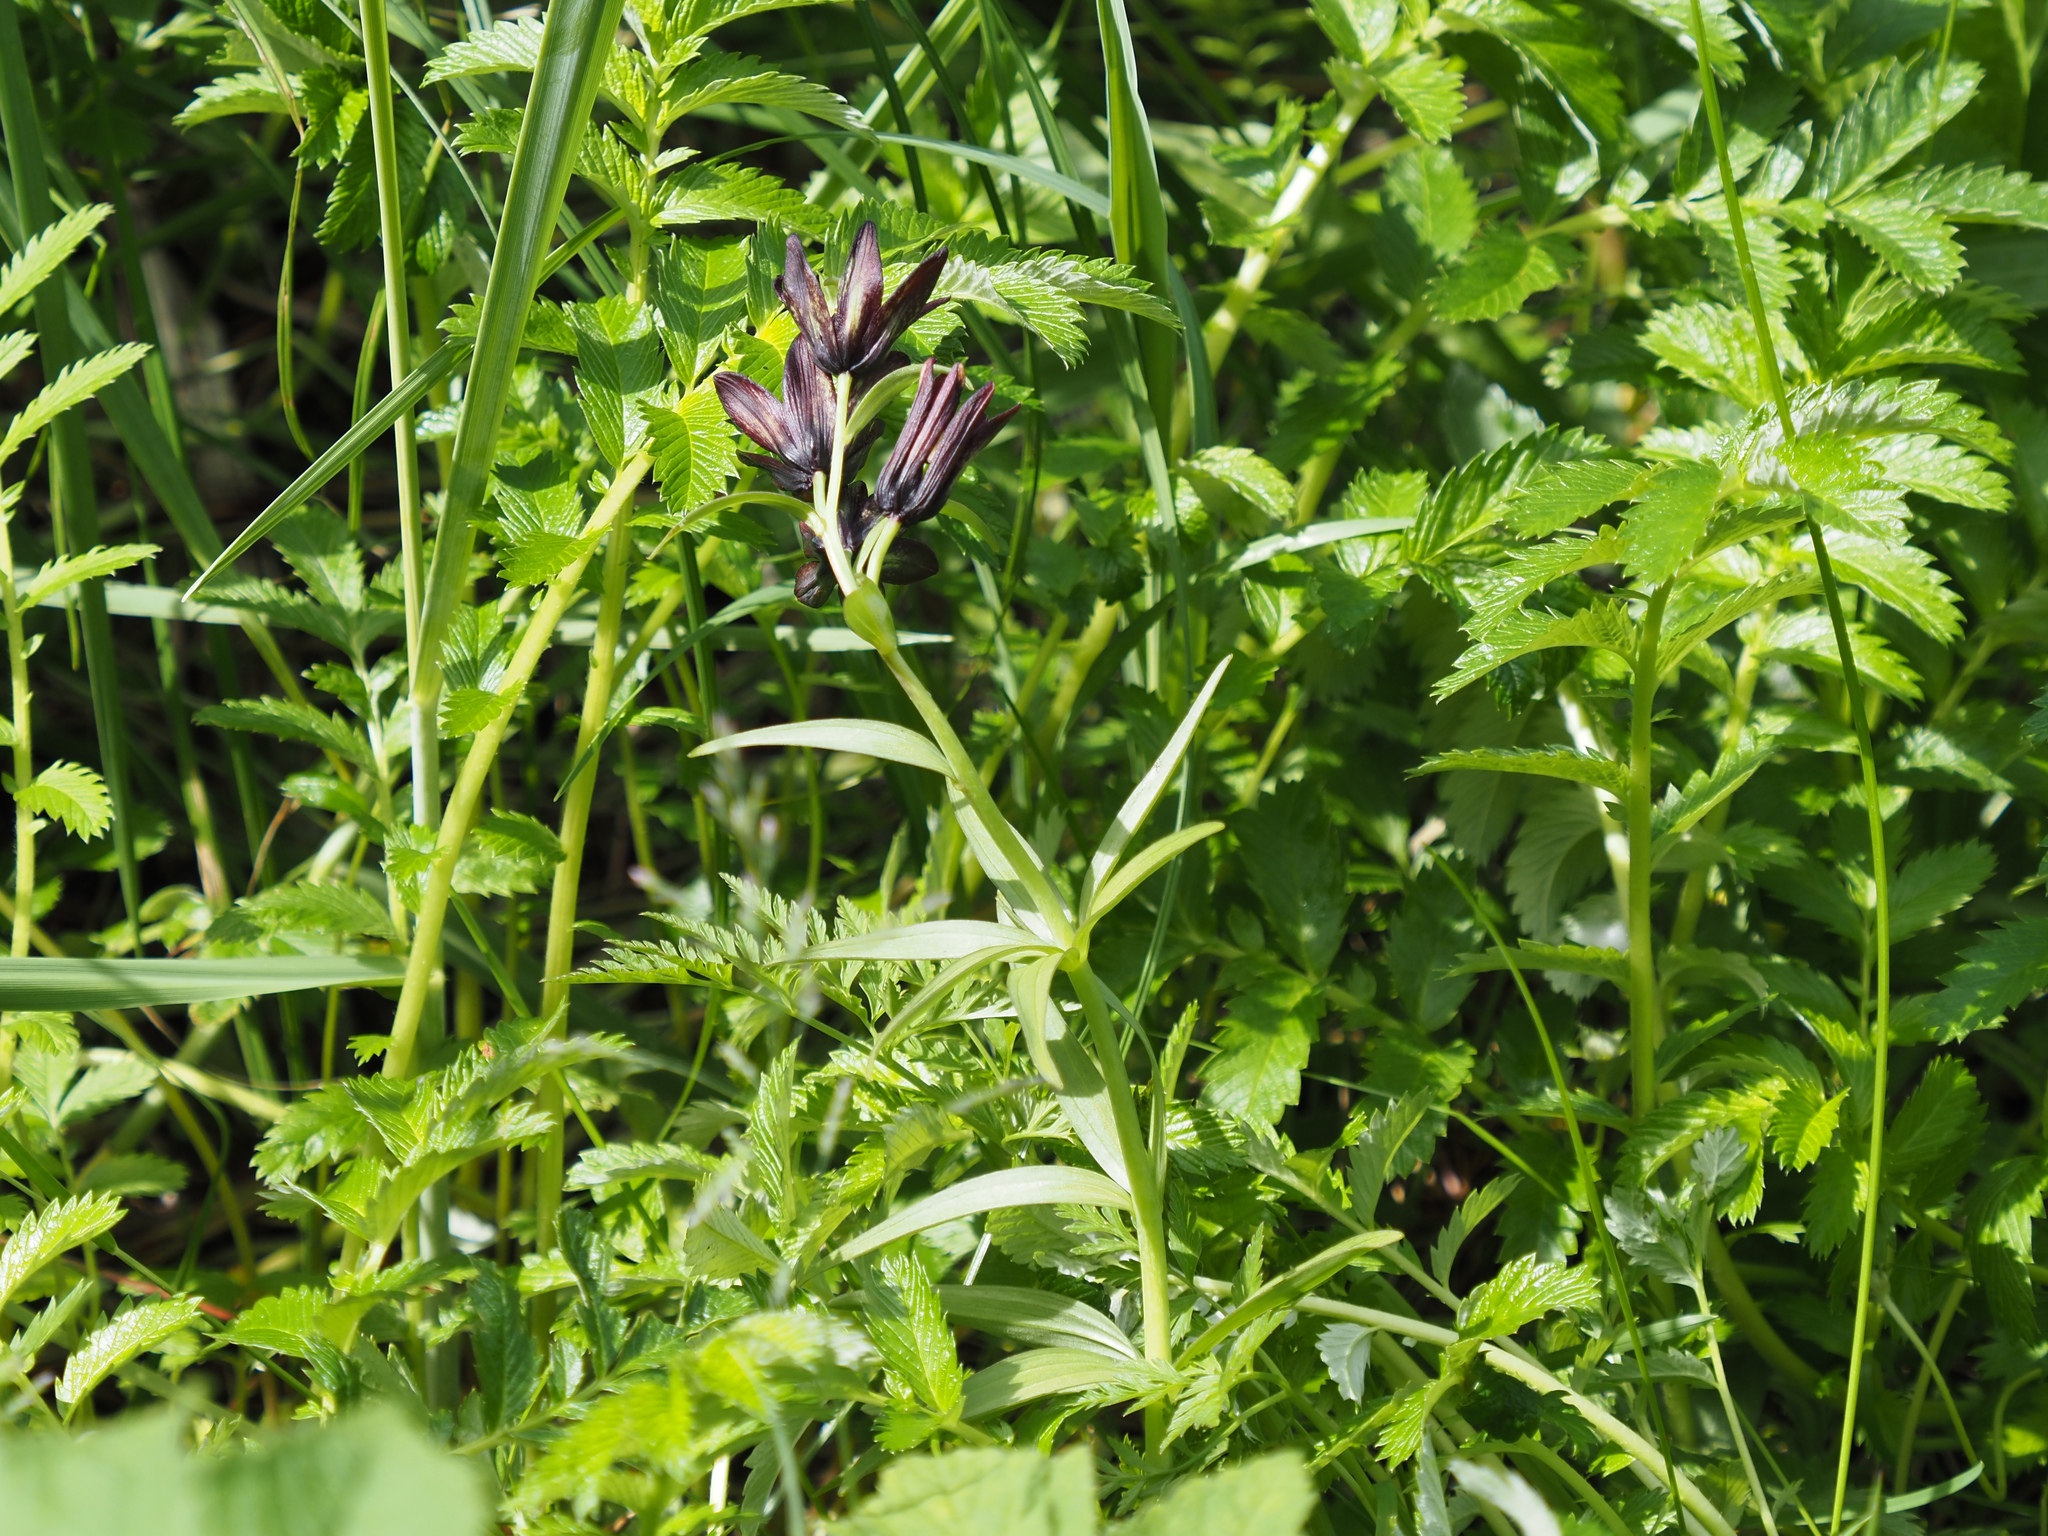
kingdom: Plantae
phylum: Tracheophyta
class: Liliopsida
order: Liliales
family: Liliaceae
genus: Fritillaria
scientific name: Fritillaria camschatcensis
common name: Kamchatka fritillary
